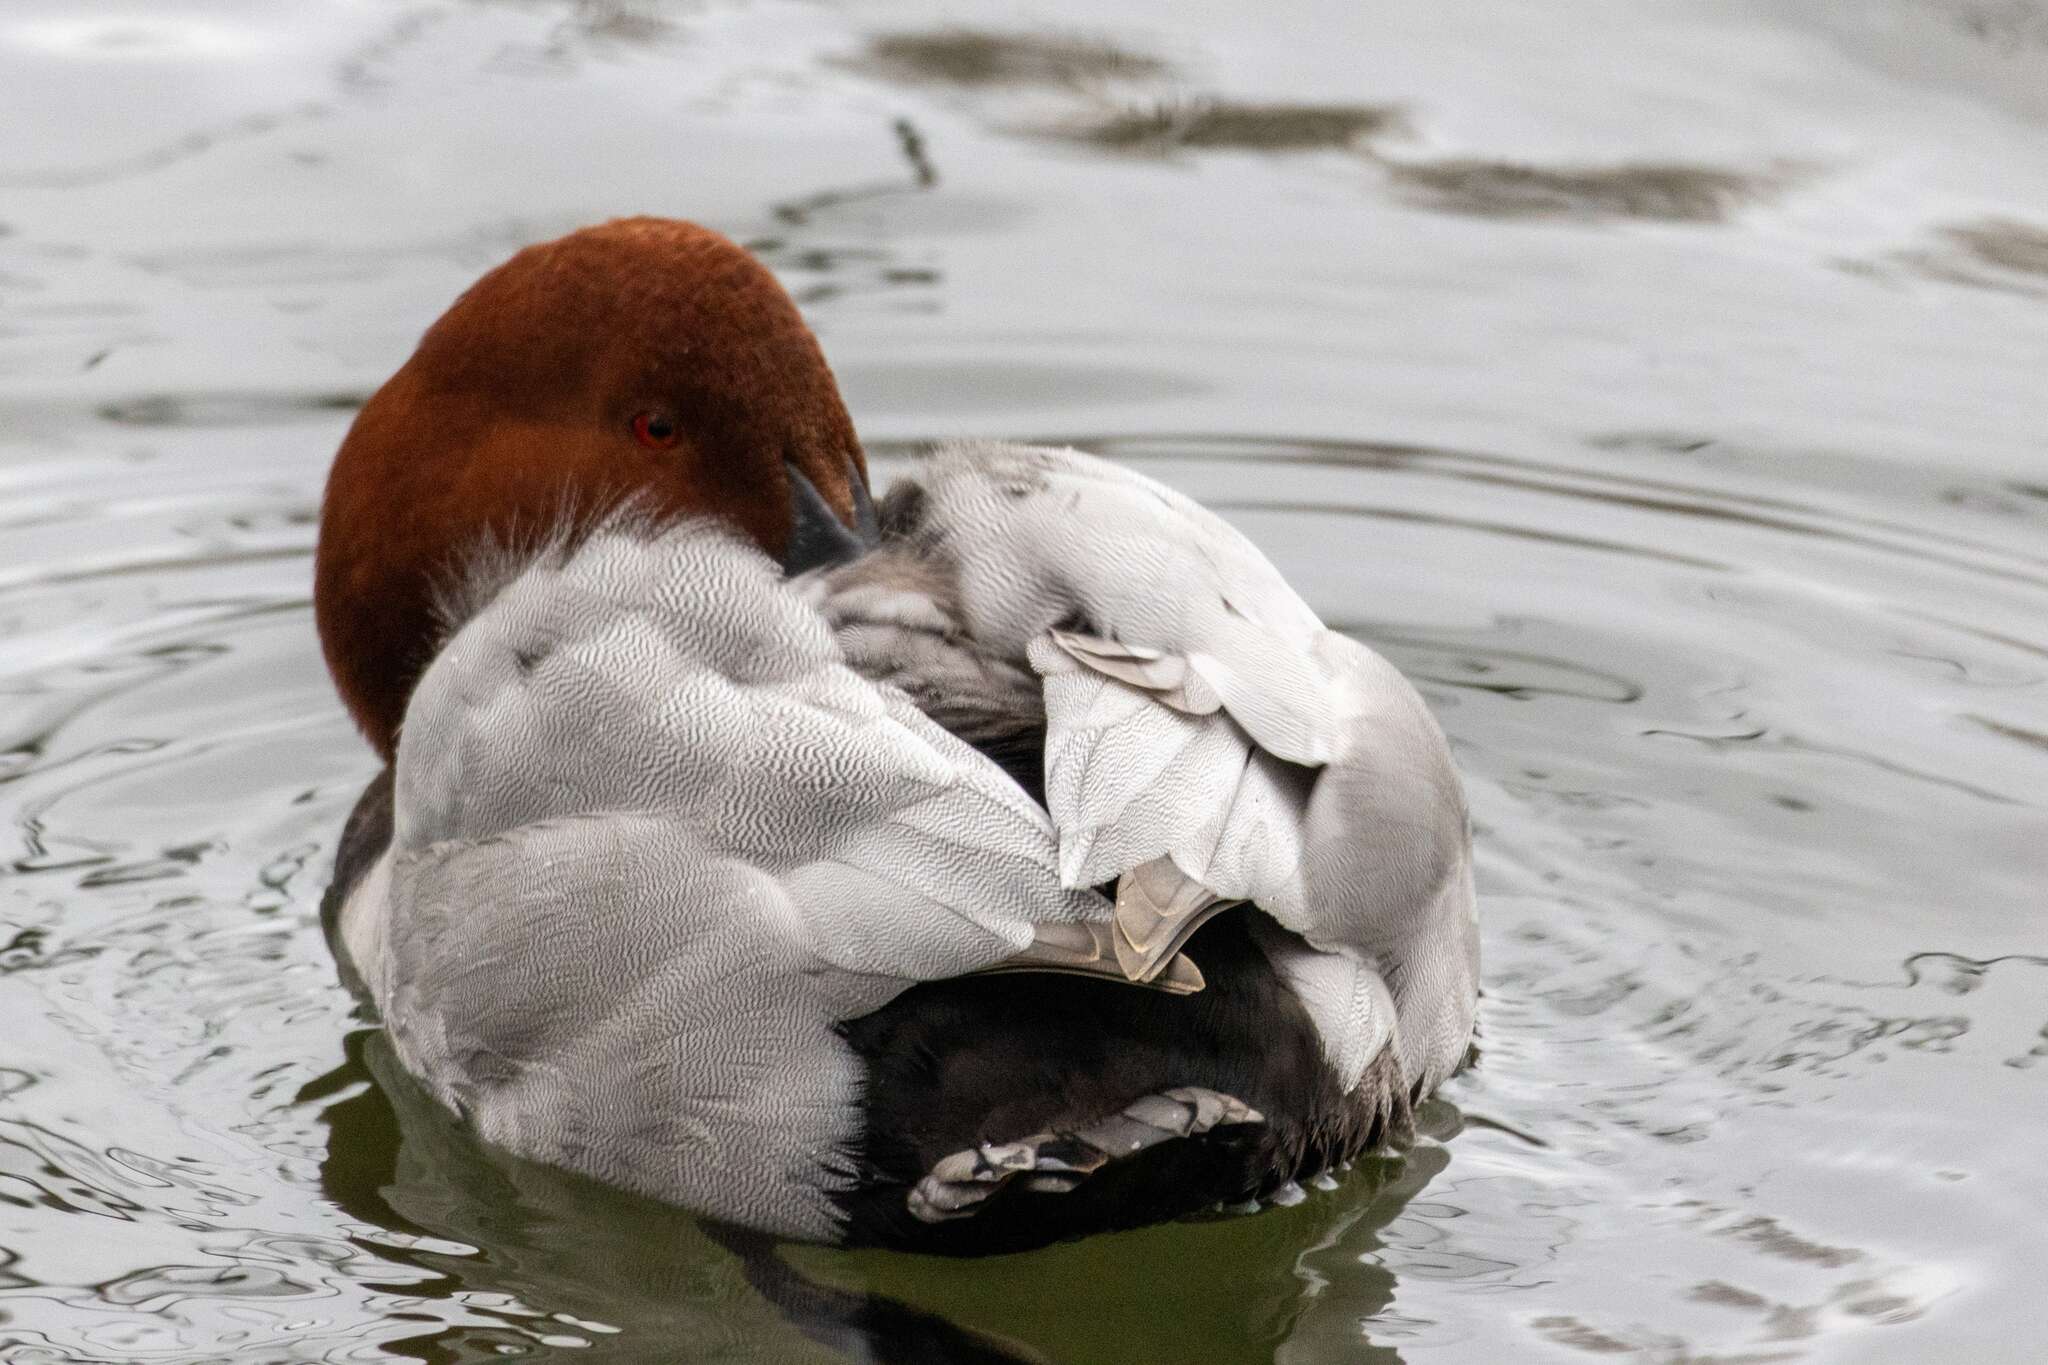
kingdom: Animalia
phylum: Chordata
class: Aves
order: Anseriformes
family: Anatidae
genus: Aythya
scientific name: Aythya ferina
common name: Common pochard
